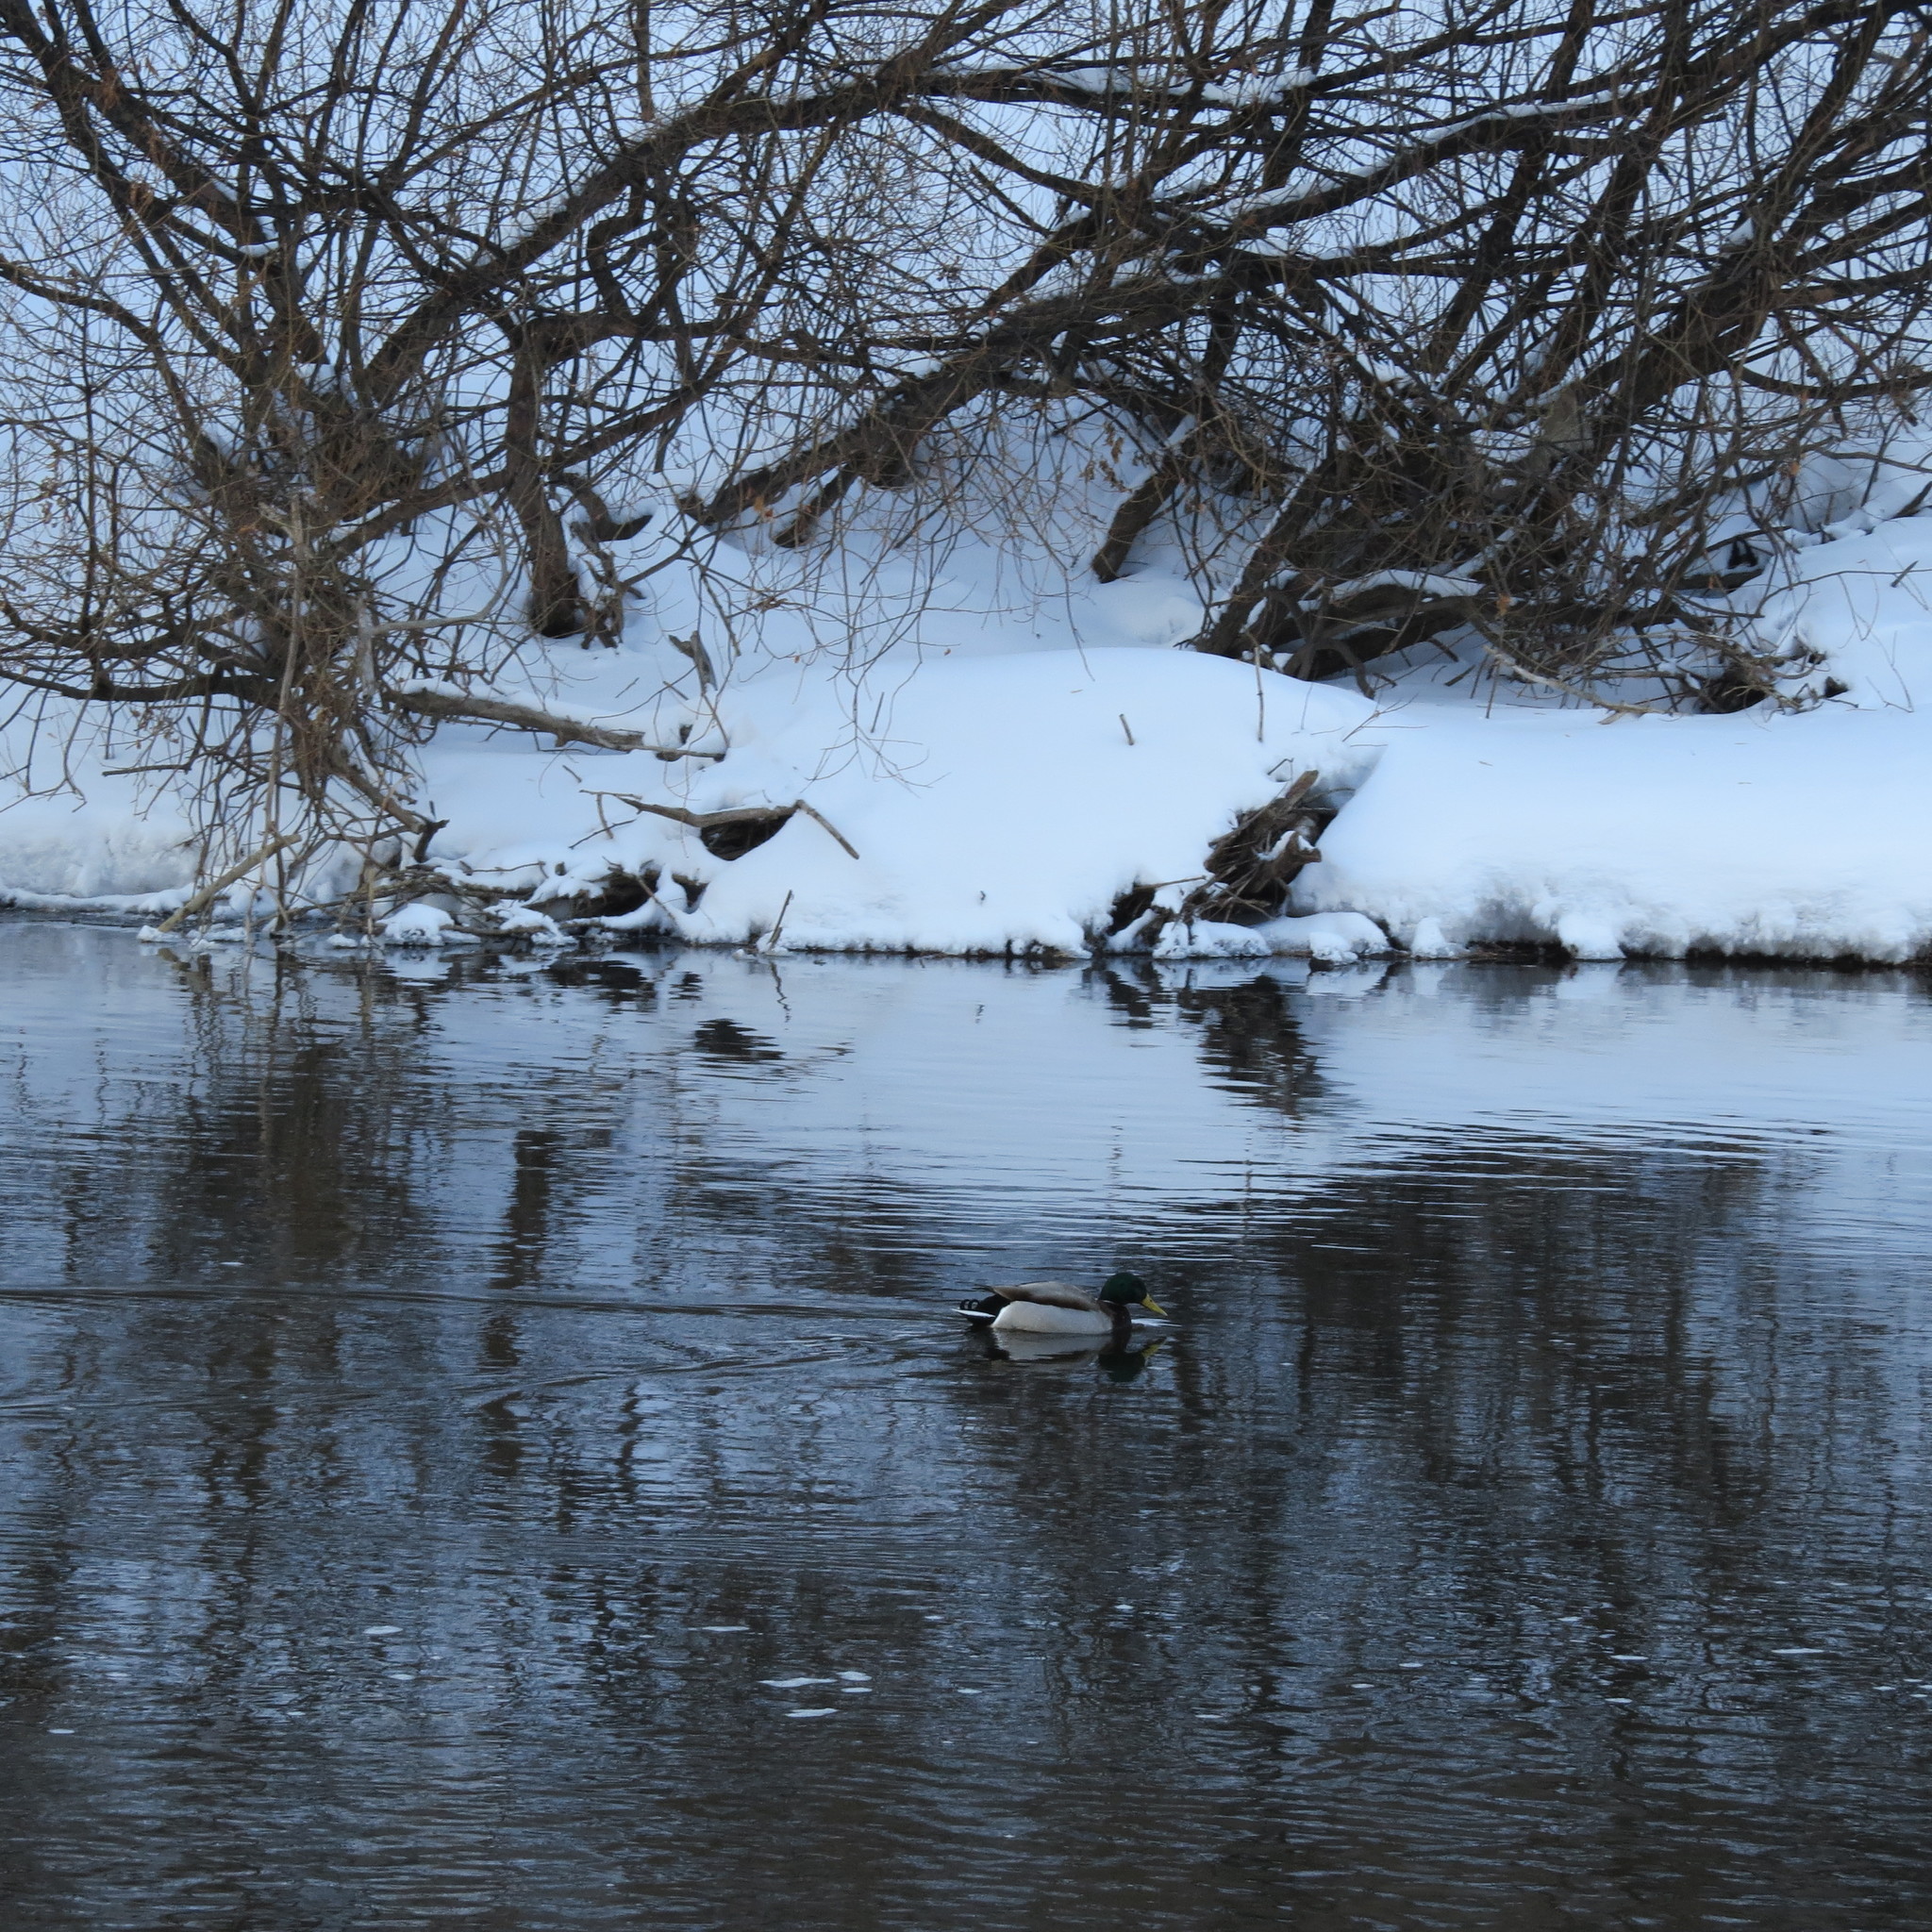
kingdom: Animalia
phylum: Chordata
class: Aves
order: Anseriformes
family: Anatidae
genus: Anas
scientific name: Anas platyrhynchos
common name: Mallard
